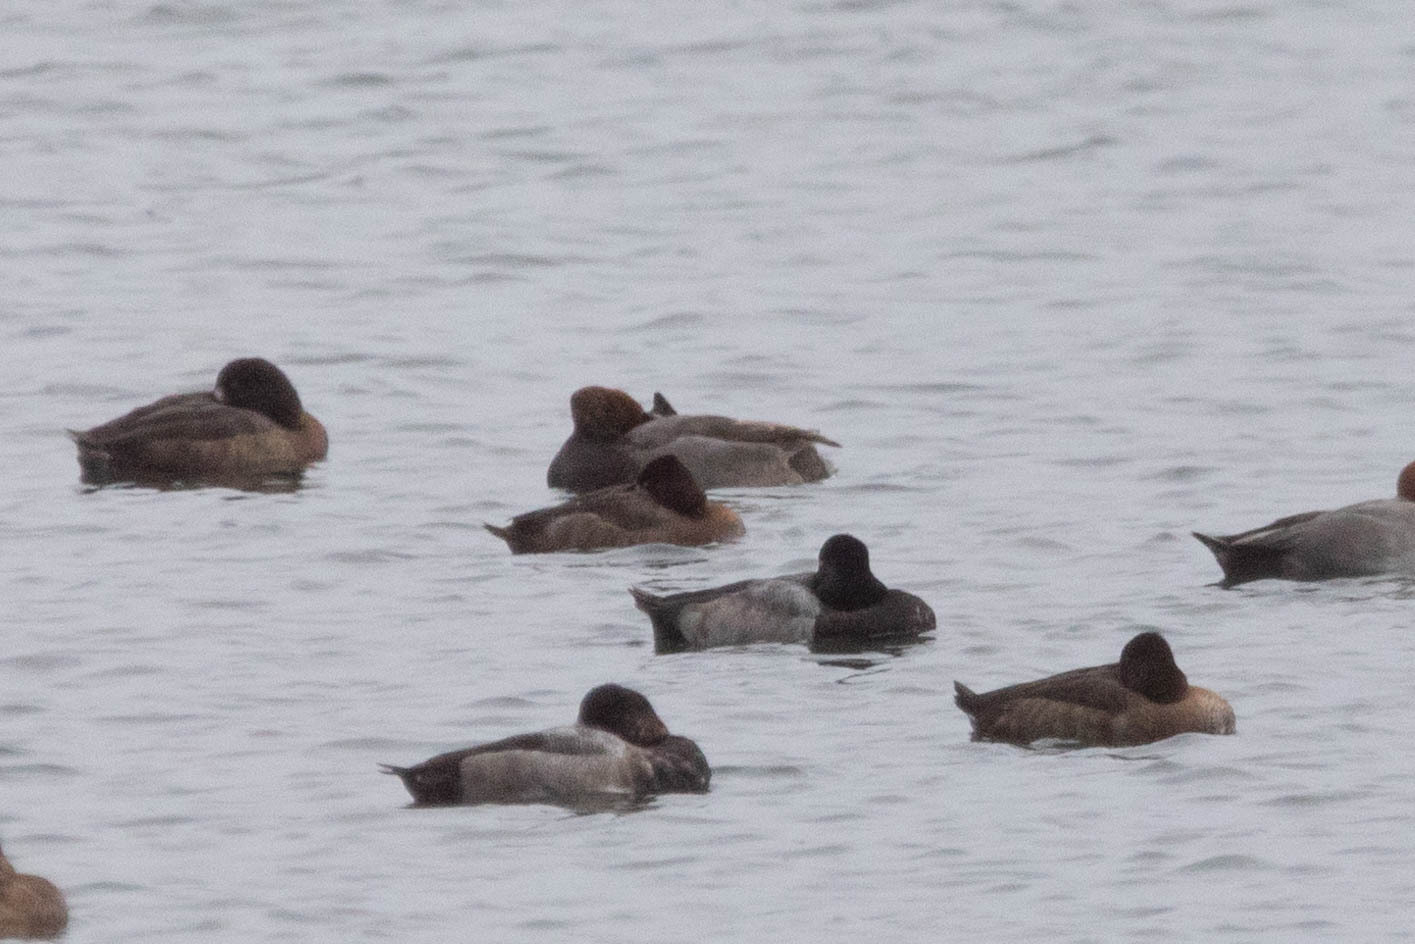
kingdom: Animalia
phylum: Chordata
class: Aves
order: Anseriformes
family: Anatidae
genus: Aythya
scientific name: Aythya affinis
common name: Lesser scaup
